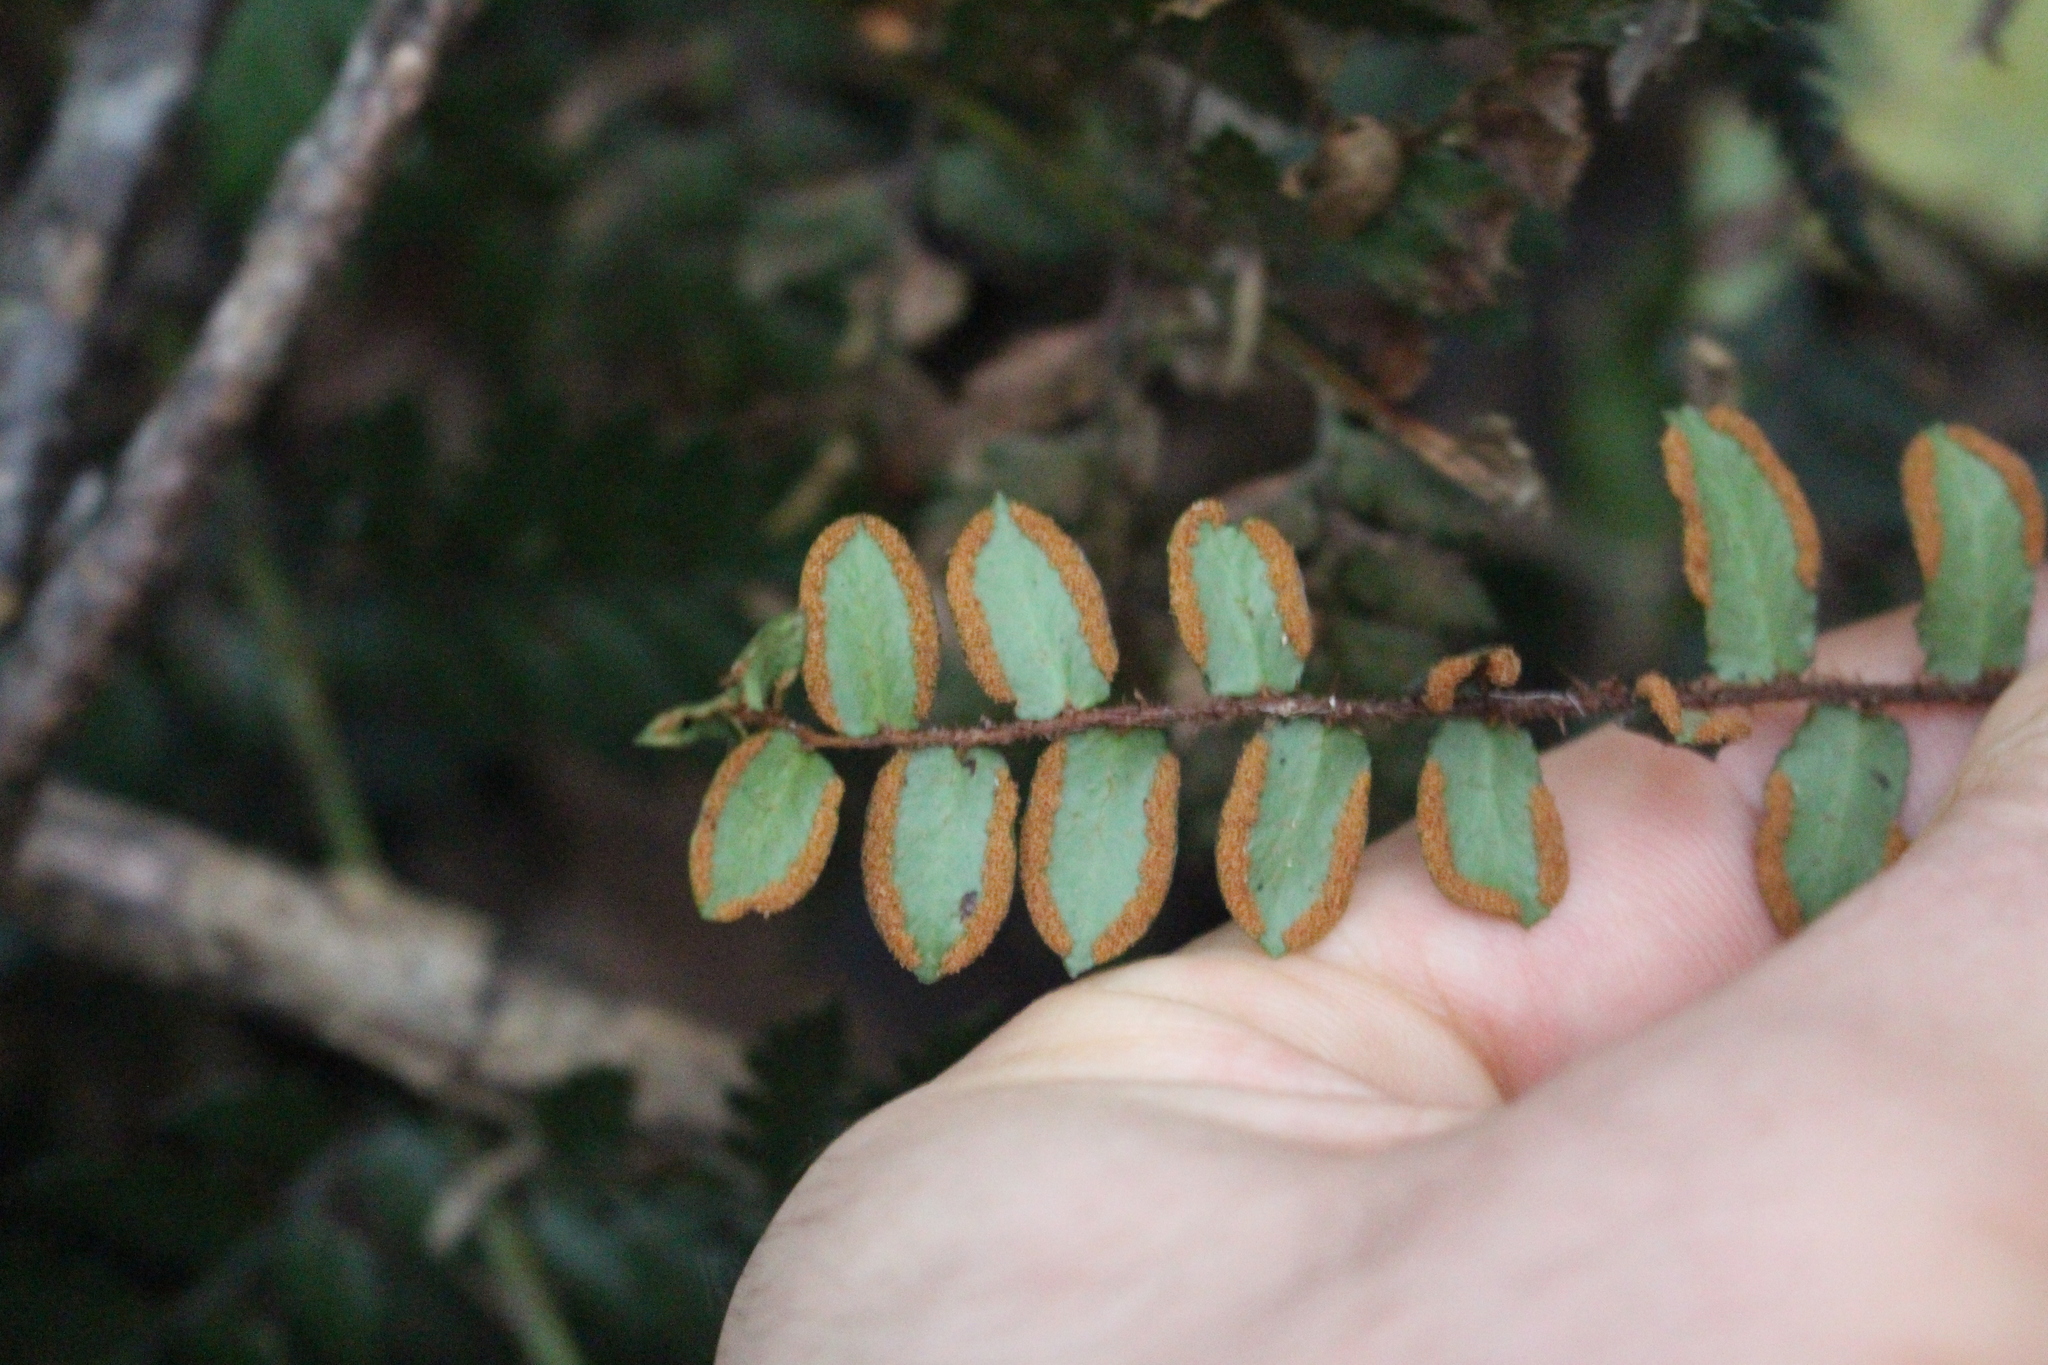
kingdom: Plantae
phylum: Tracheophyta
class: Polypodiopsida
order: Polypodiales
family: Pteridaceae
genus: Pellaea
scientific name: Pellaea rotundifolia
